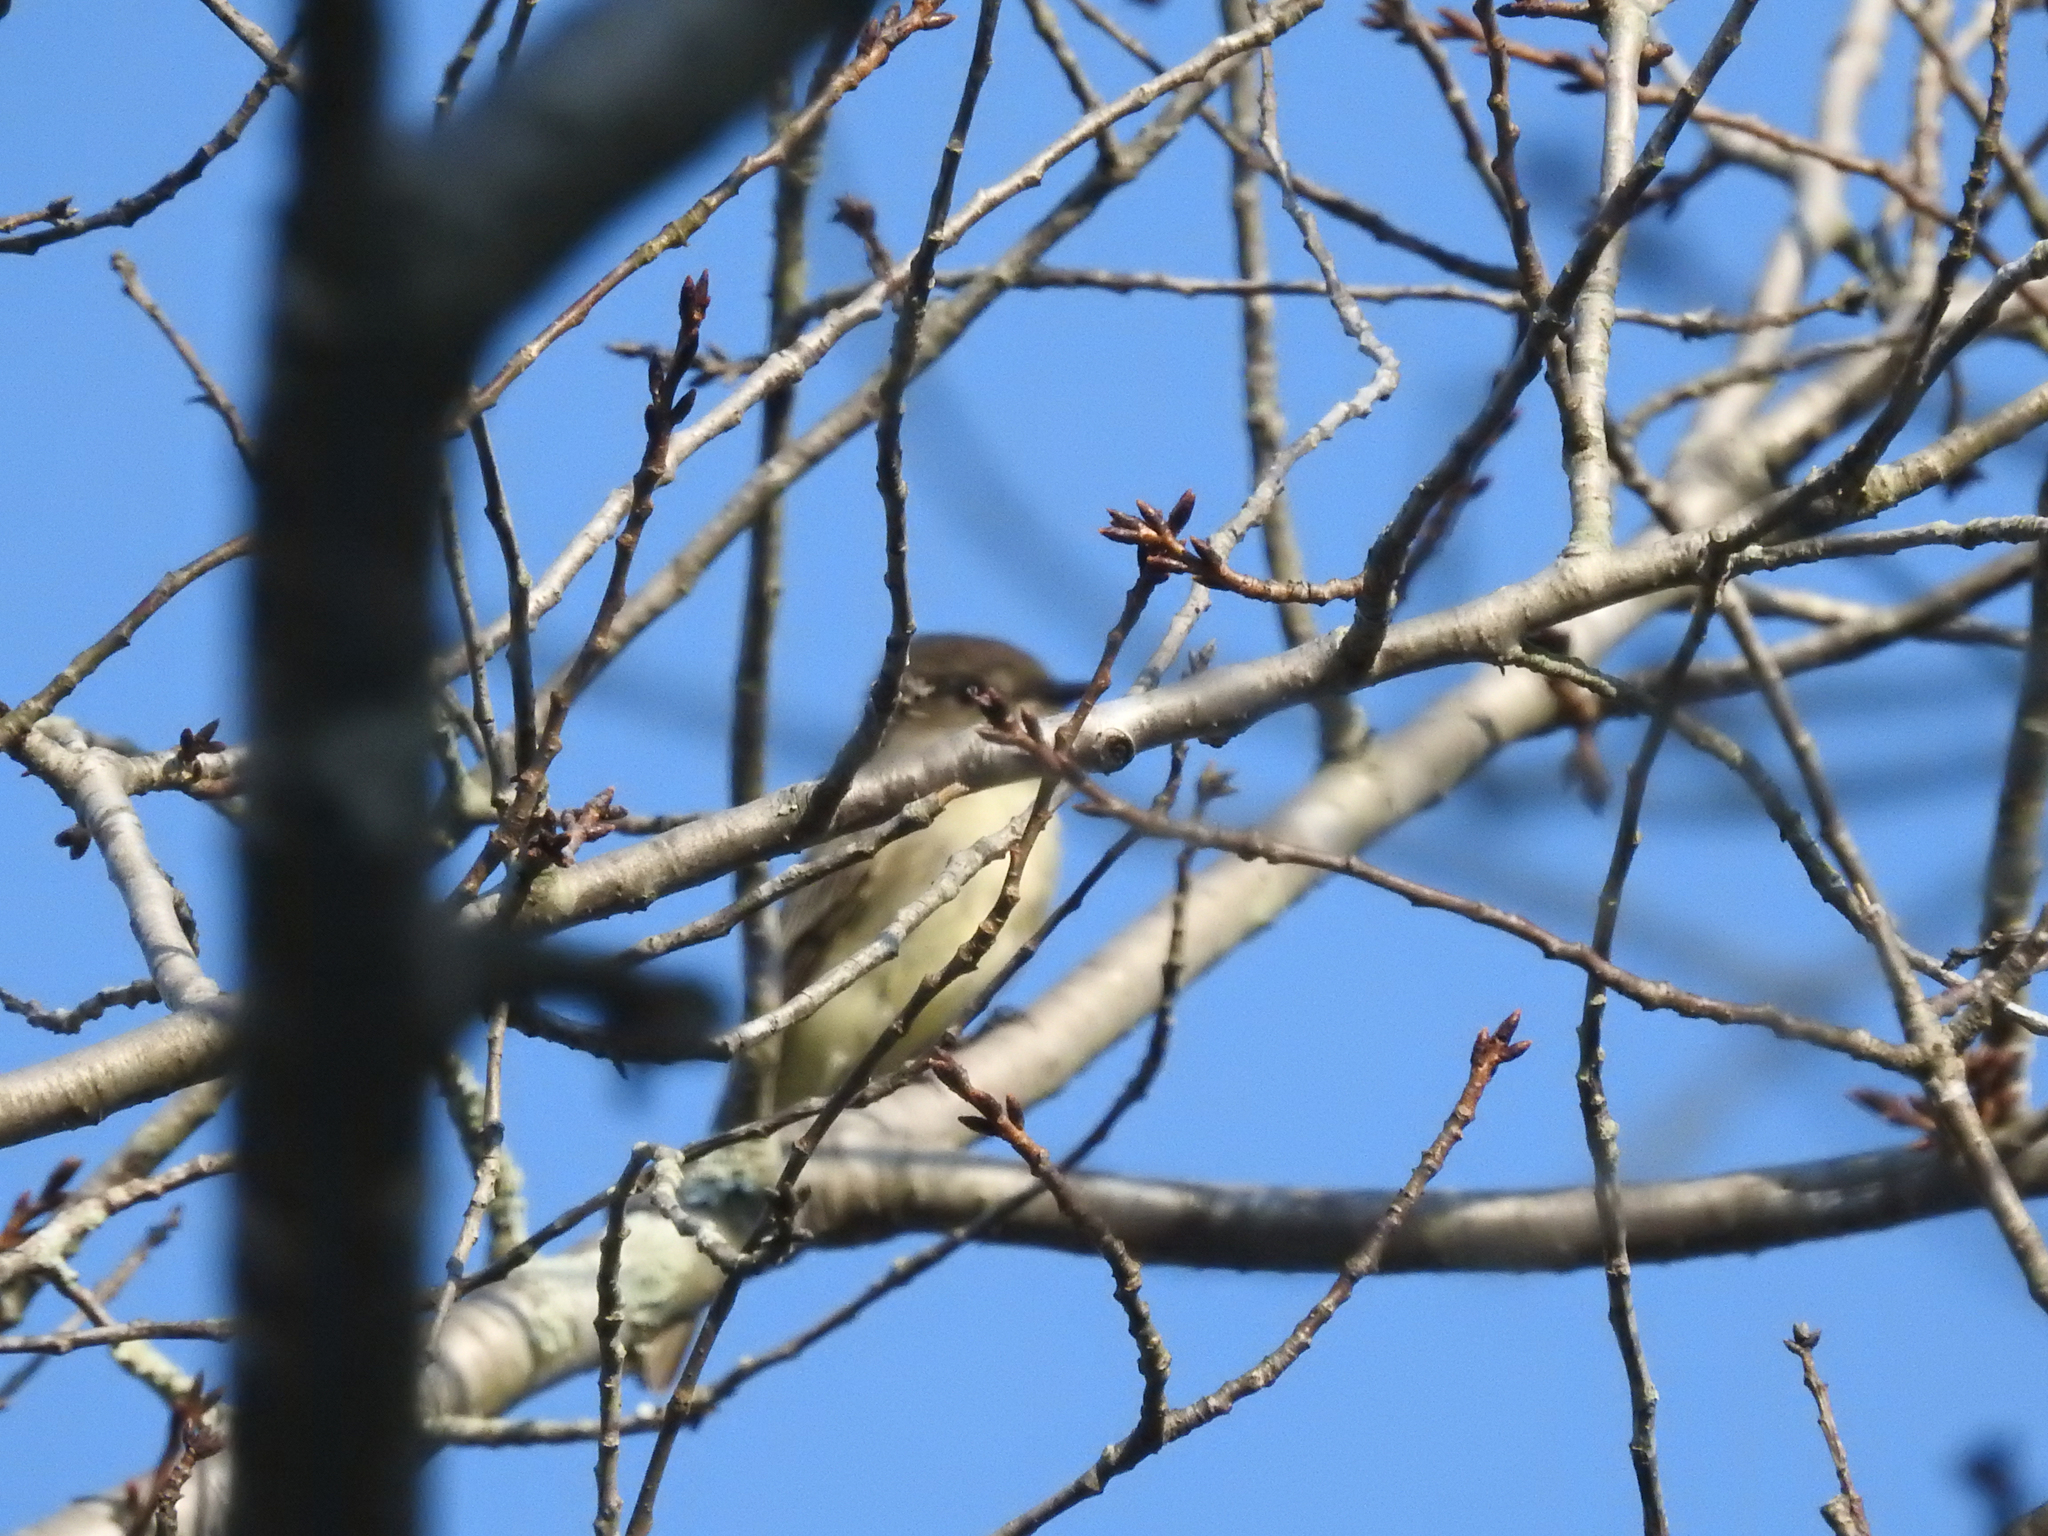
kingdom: Animalia
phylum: Chordata
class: Aves
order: Passeriformes
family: Tyrannidae
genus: Sayornis
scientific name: Sayornis phoebe
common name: Eastern phoebe
